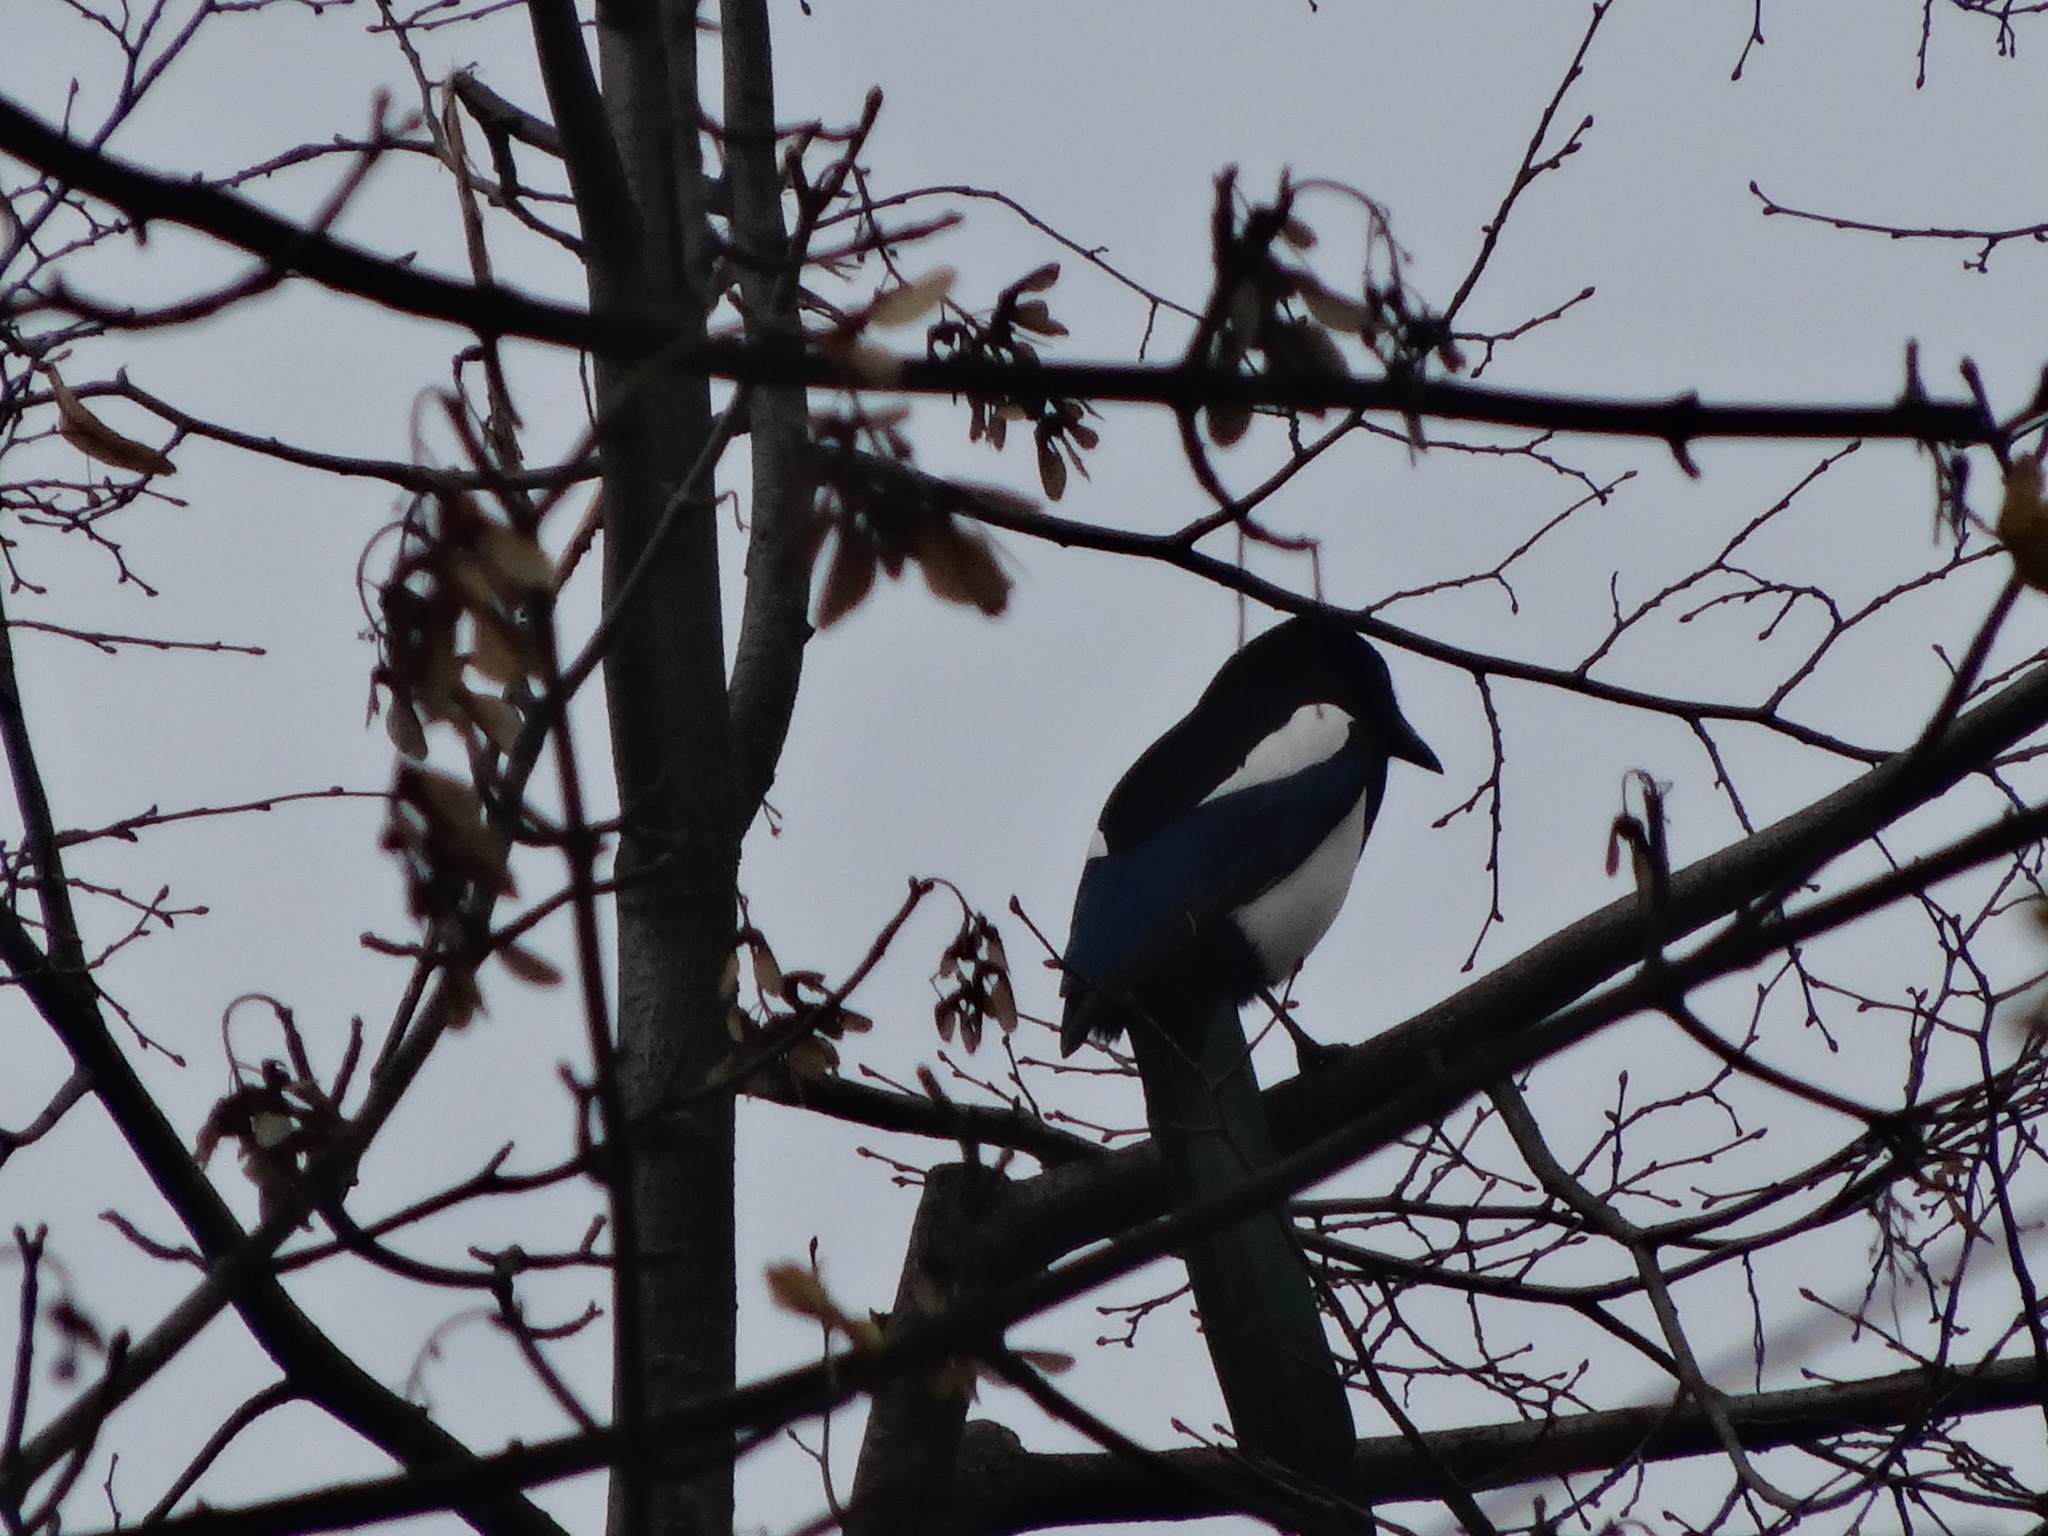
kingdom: Animalia
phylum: Chordata
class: Aves
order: Passeriformes
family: Corvidae
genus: Pica
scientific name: Pica pica
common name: Eurasian magpie
